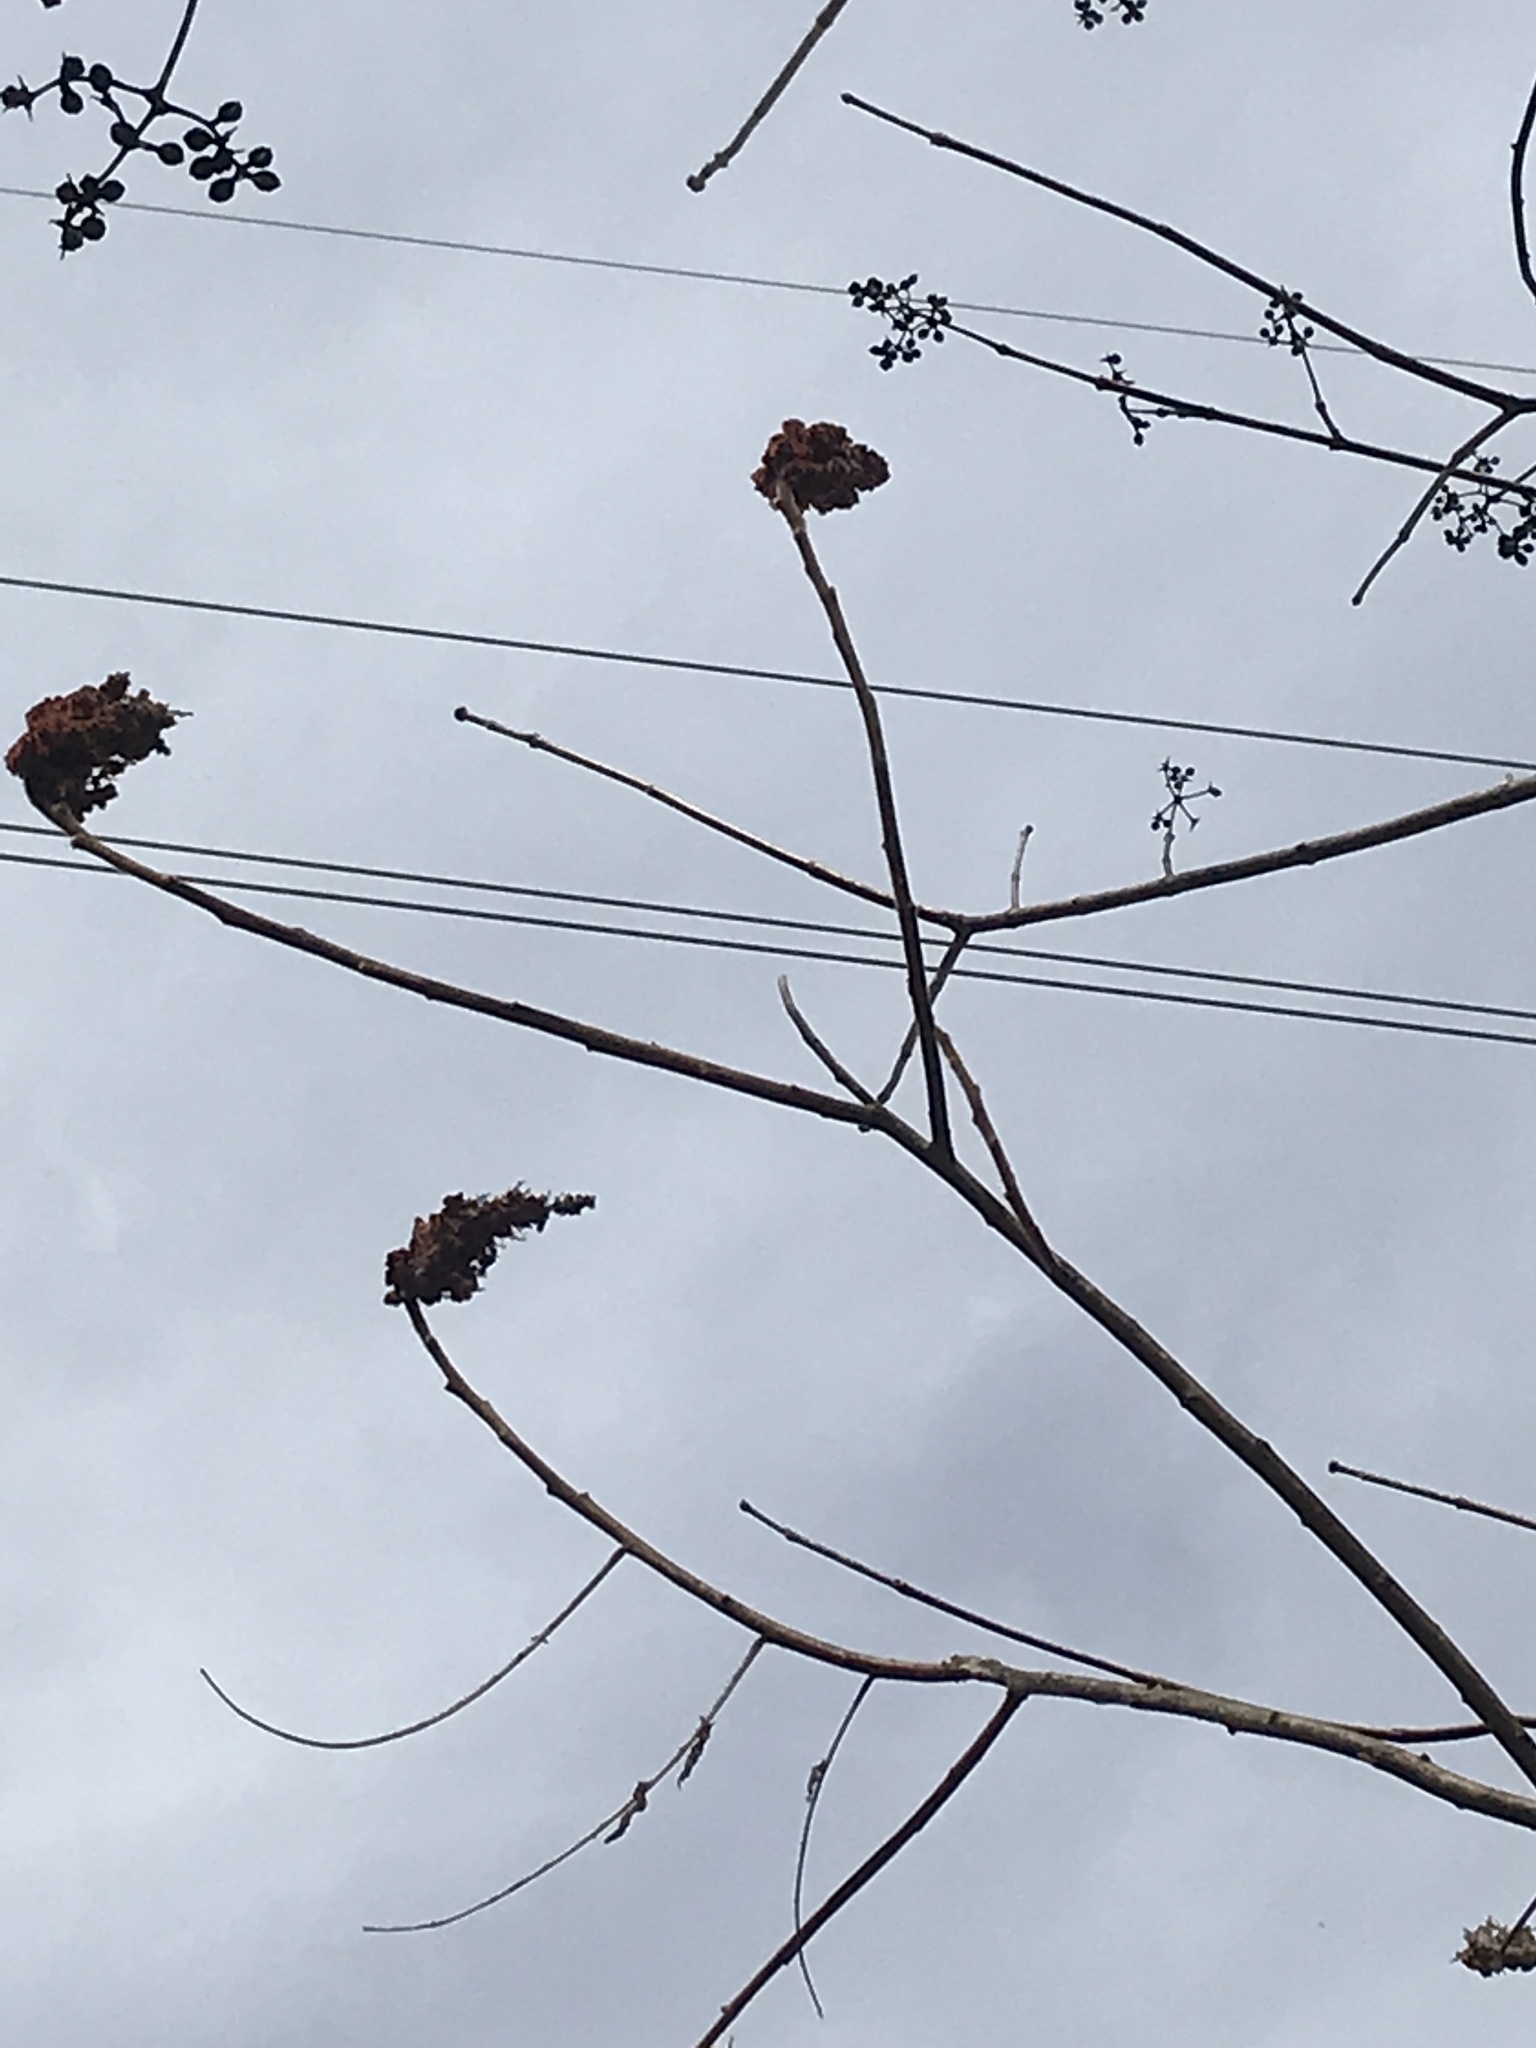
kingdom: Plantae
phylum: Tracheophyta
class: Magnoliopsida
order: Sapindales
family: Anacardiaceae
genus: Rhus
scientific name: Rhus typhina
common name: Staghorn sumac
